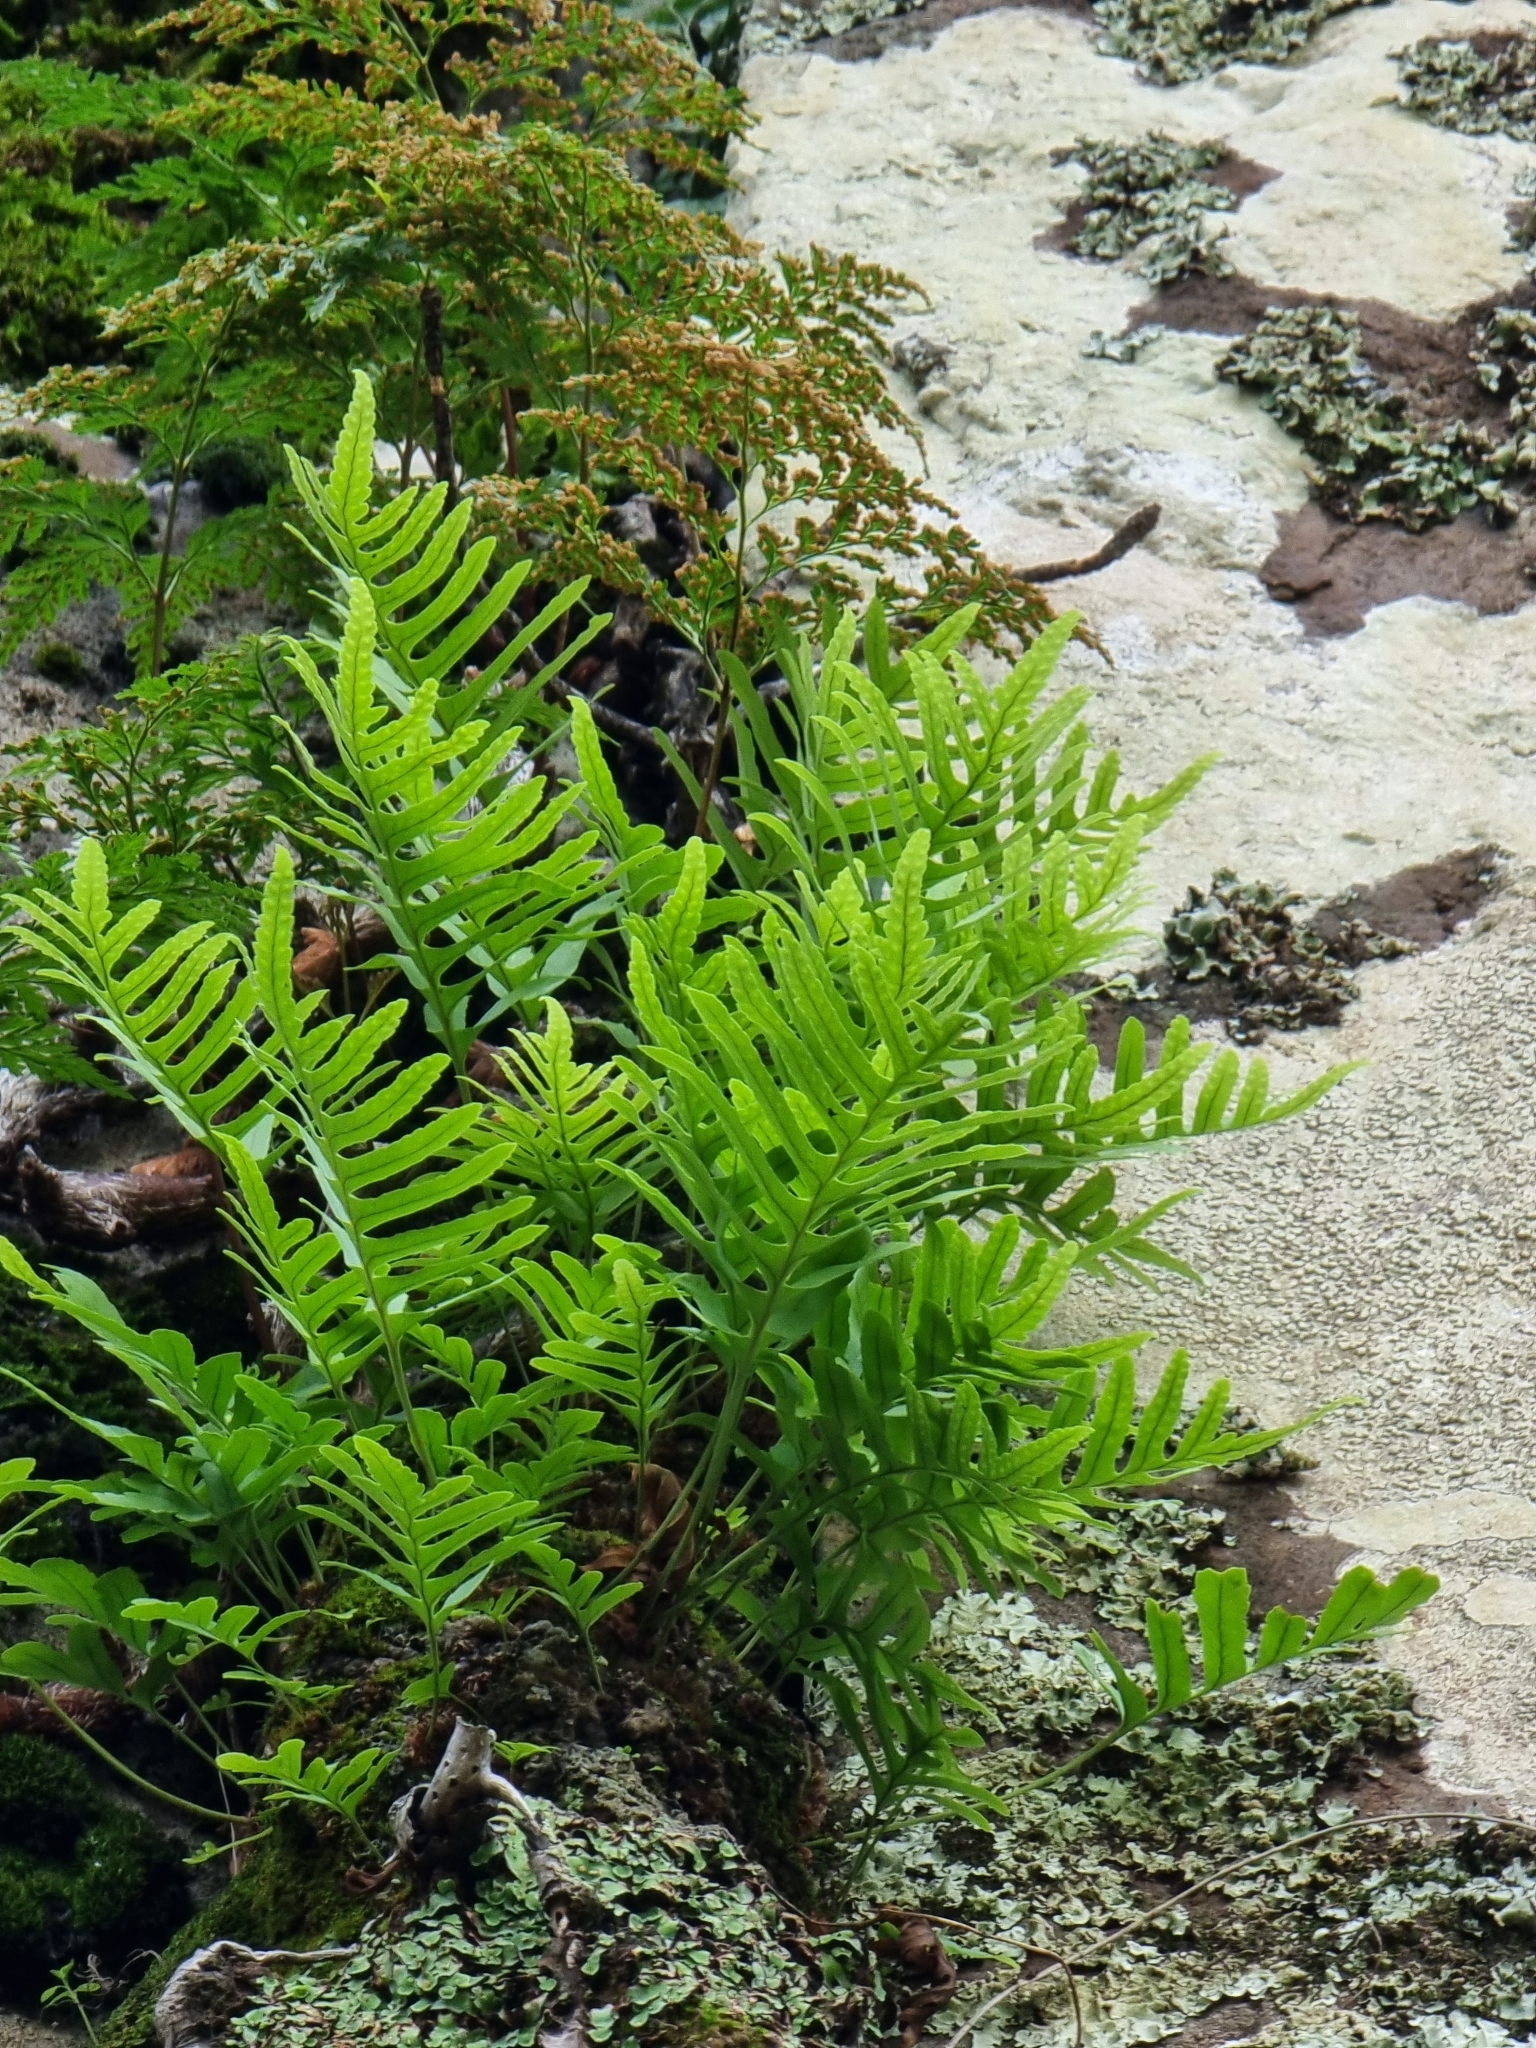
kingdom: Plantae
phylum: Tracheophyta
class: Polypodiopsida
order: Polypodiales
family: Polypodiaceae
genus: Polypodium
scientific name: Polypodium macaronesicum
